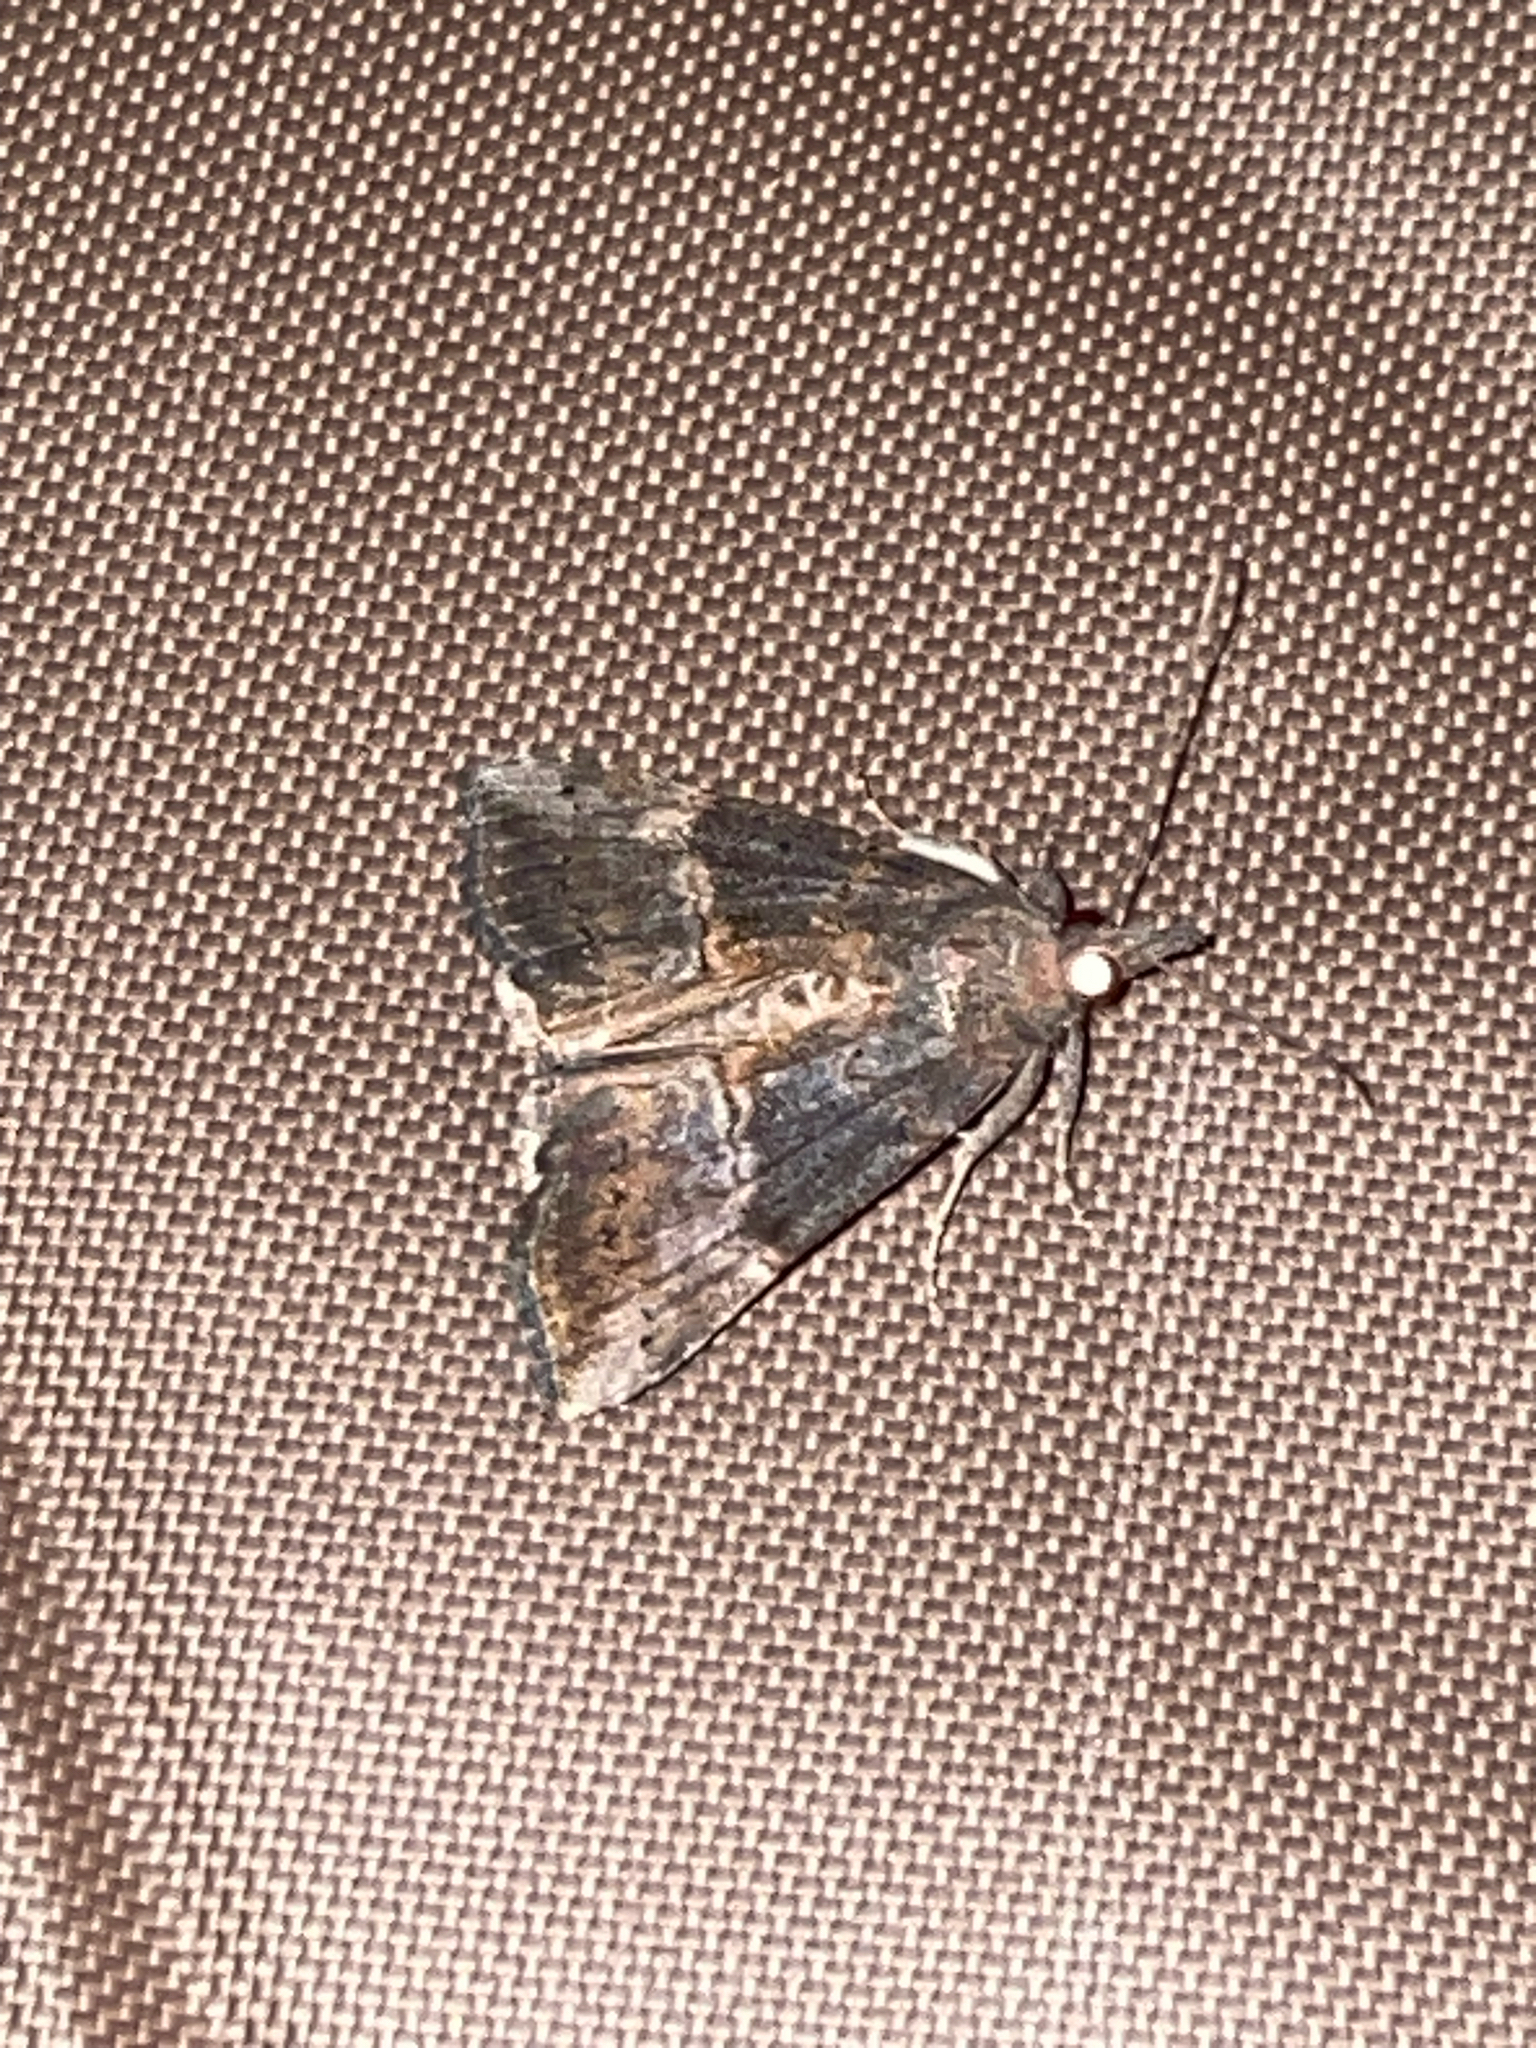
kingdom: Animalia
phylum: Arthropoda
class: Insecta
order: Lepidoptera
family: Erebidae
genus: Hypena
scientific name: Hypena scabra
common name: Green cloverworm
